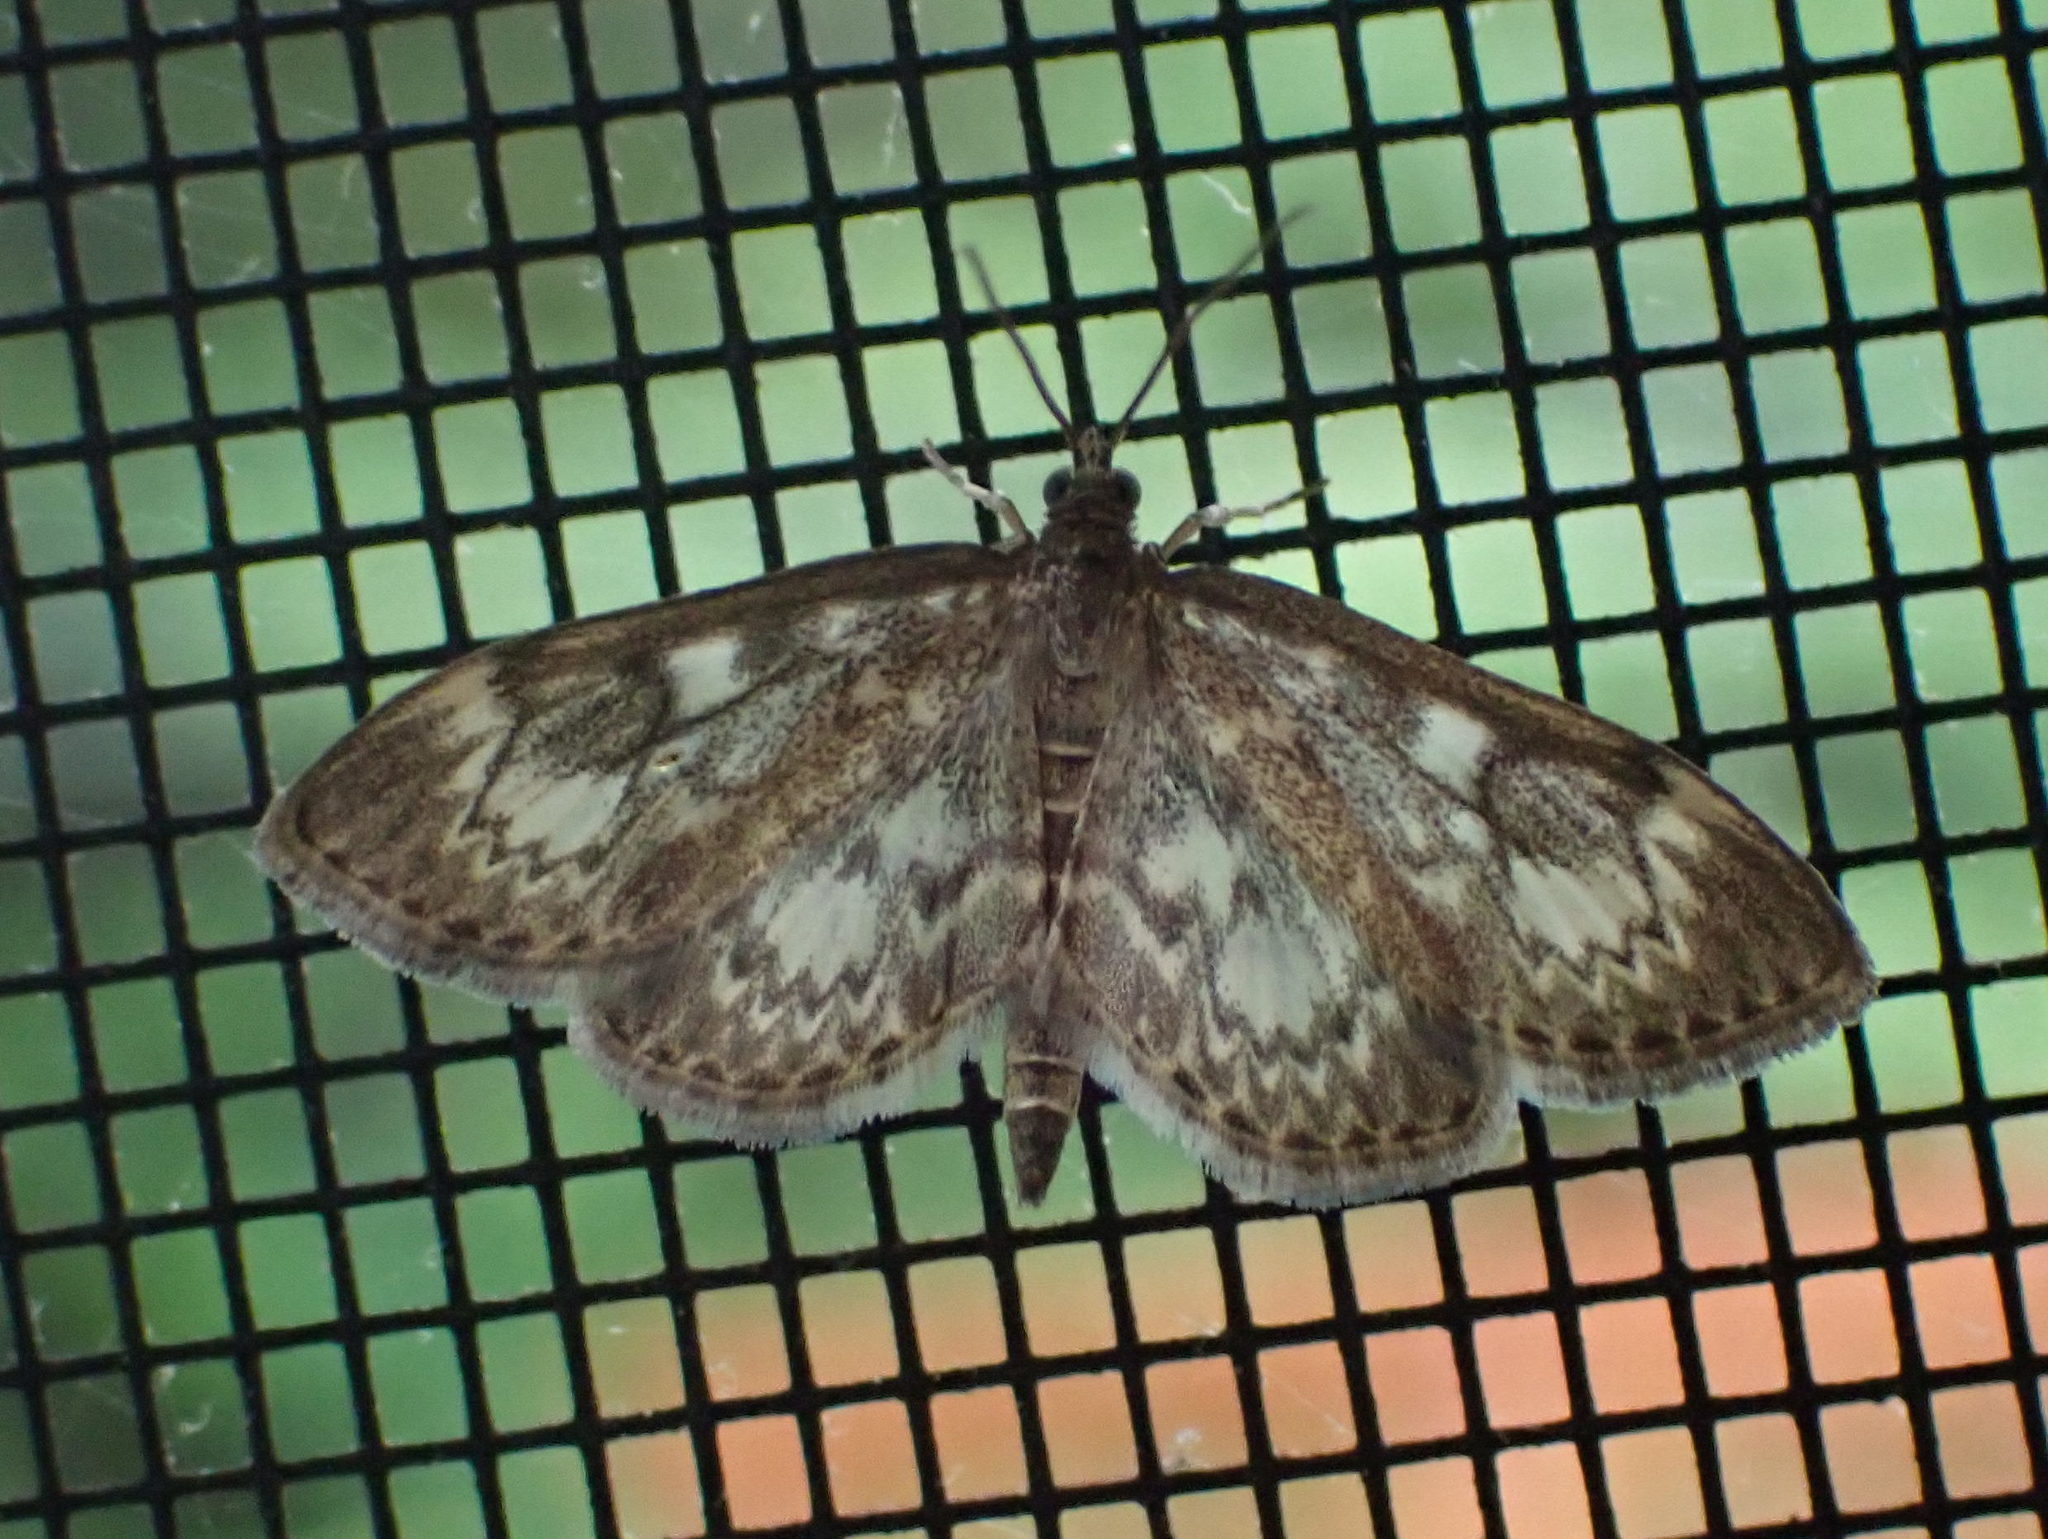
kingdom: Animalia
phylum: Arthropoda
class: Insecta
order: Lepidoptera
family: Crambidae
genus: Anania
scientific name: Anania
